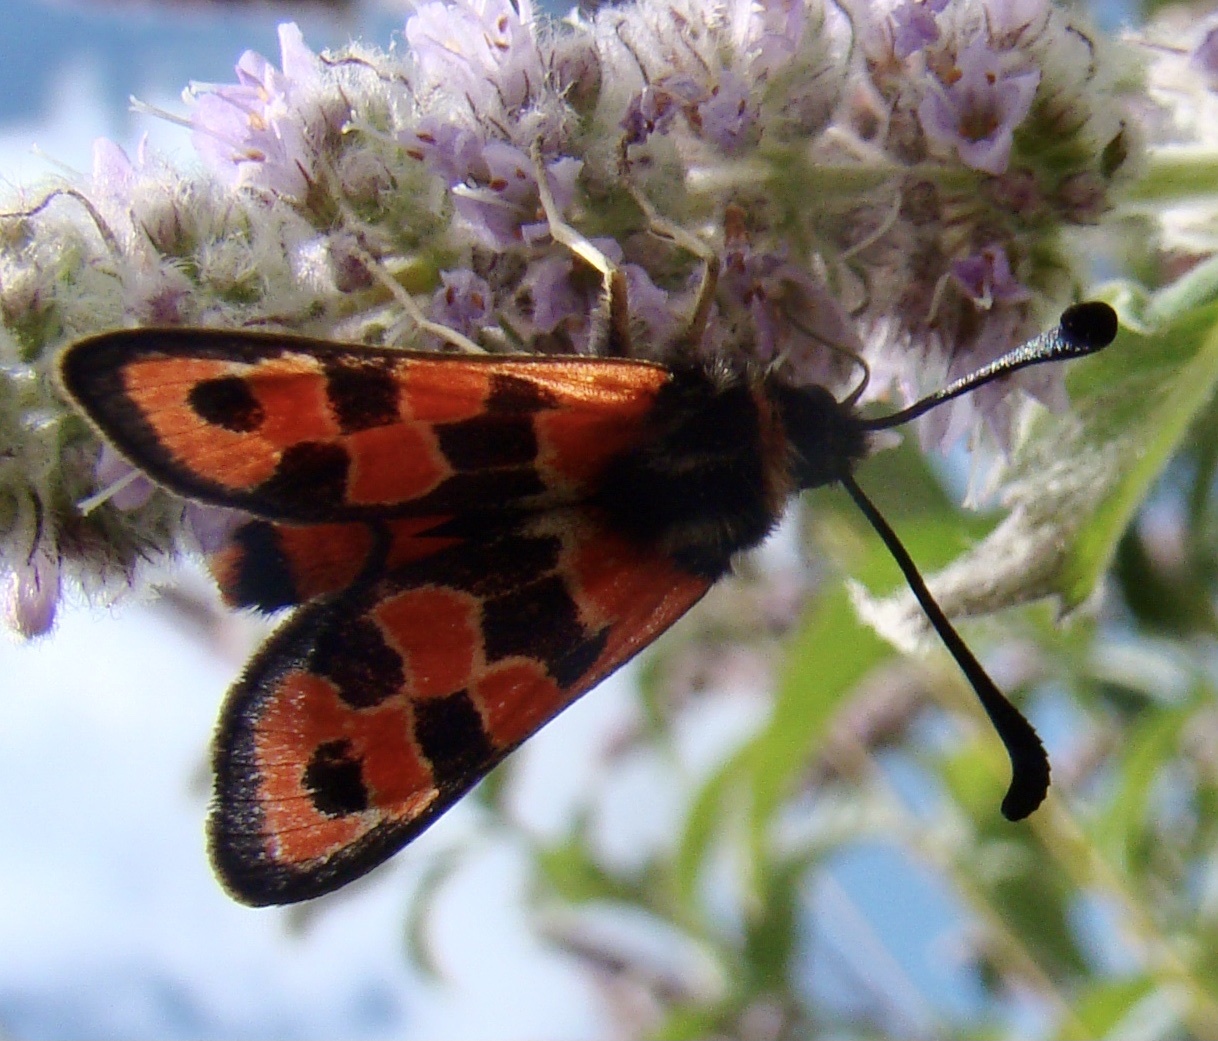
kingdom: Animalia
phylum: Arthropoda
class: Insecta
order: Lepidoptera
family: Zygaenidae
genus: Zygaena
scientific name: Zygaena fausta
